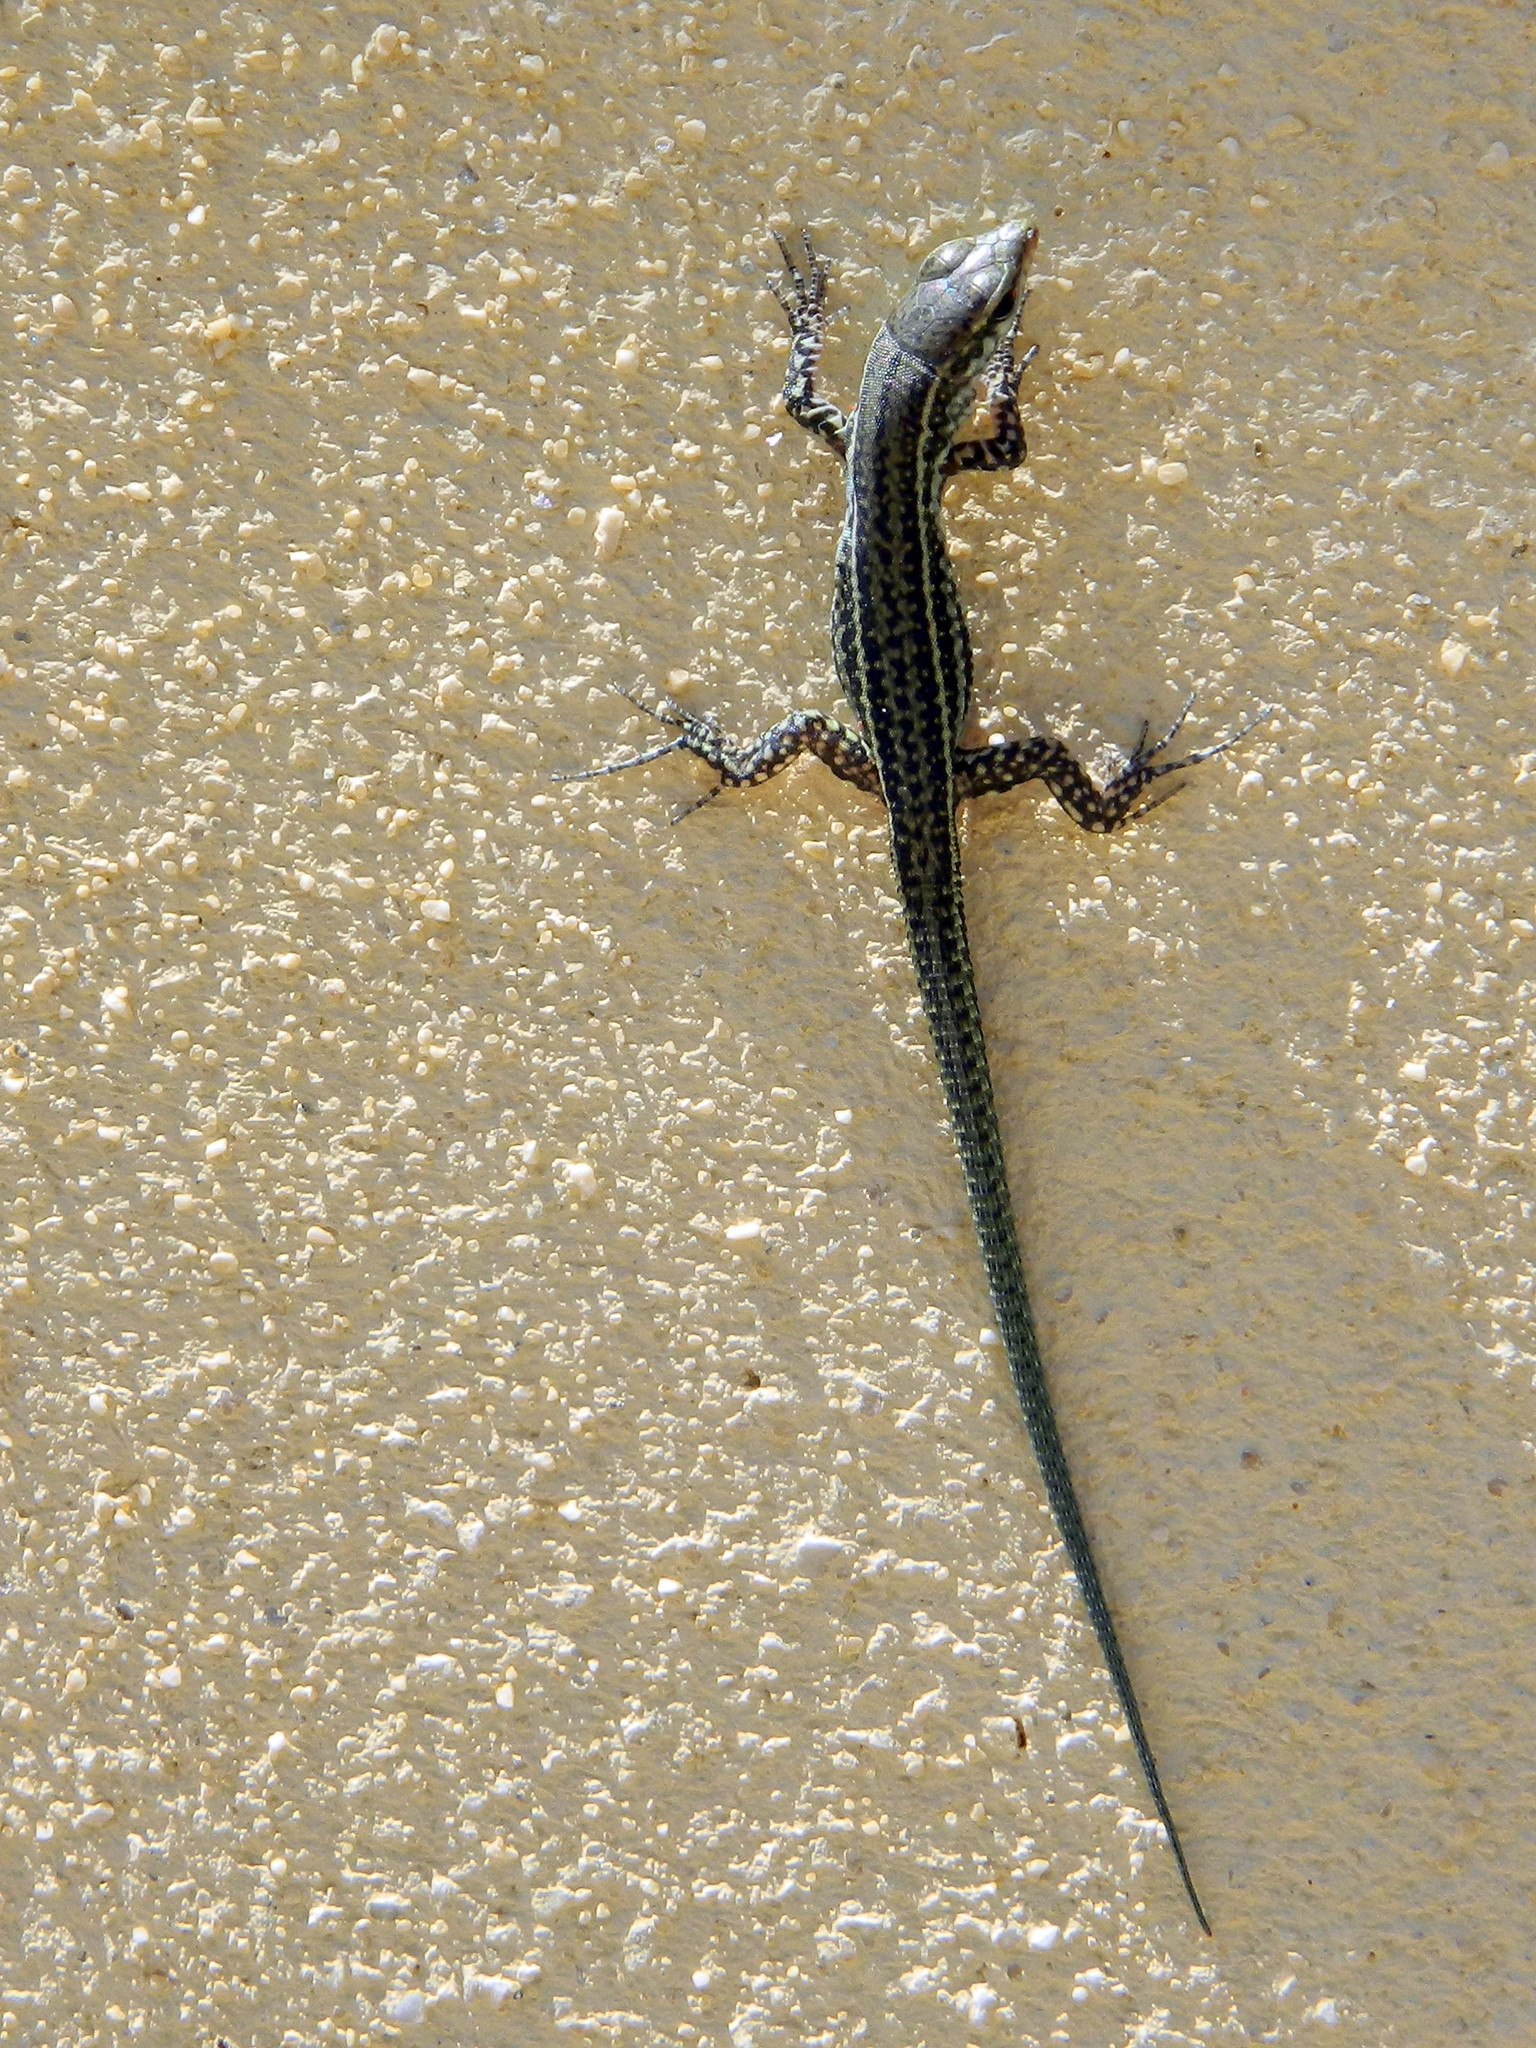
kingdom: Animalia
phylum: Chordata
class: Squamata
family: Lacertidae
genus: Podarcis
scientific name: Podarcis tiliguerta
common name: Tyrrhenian wall lizard
